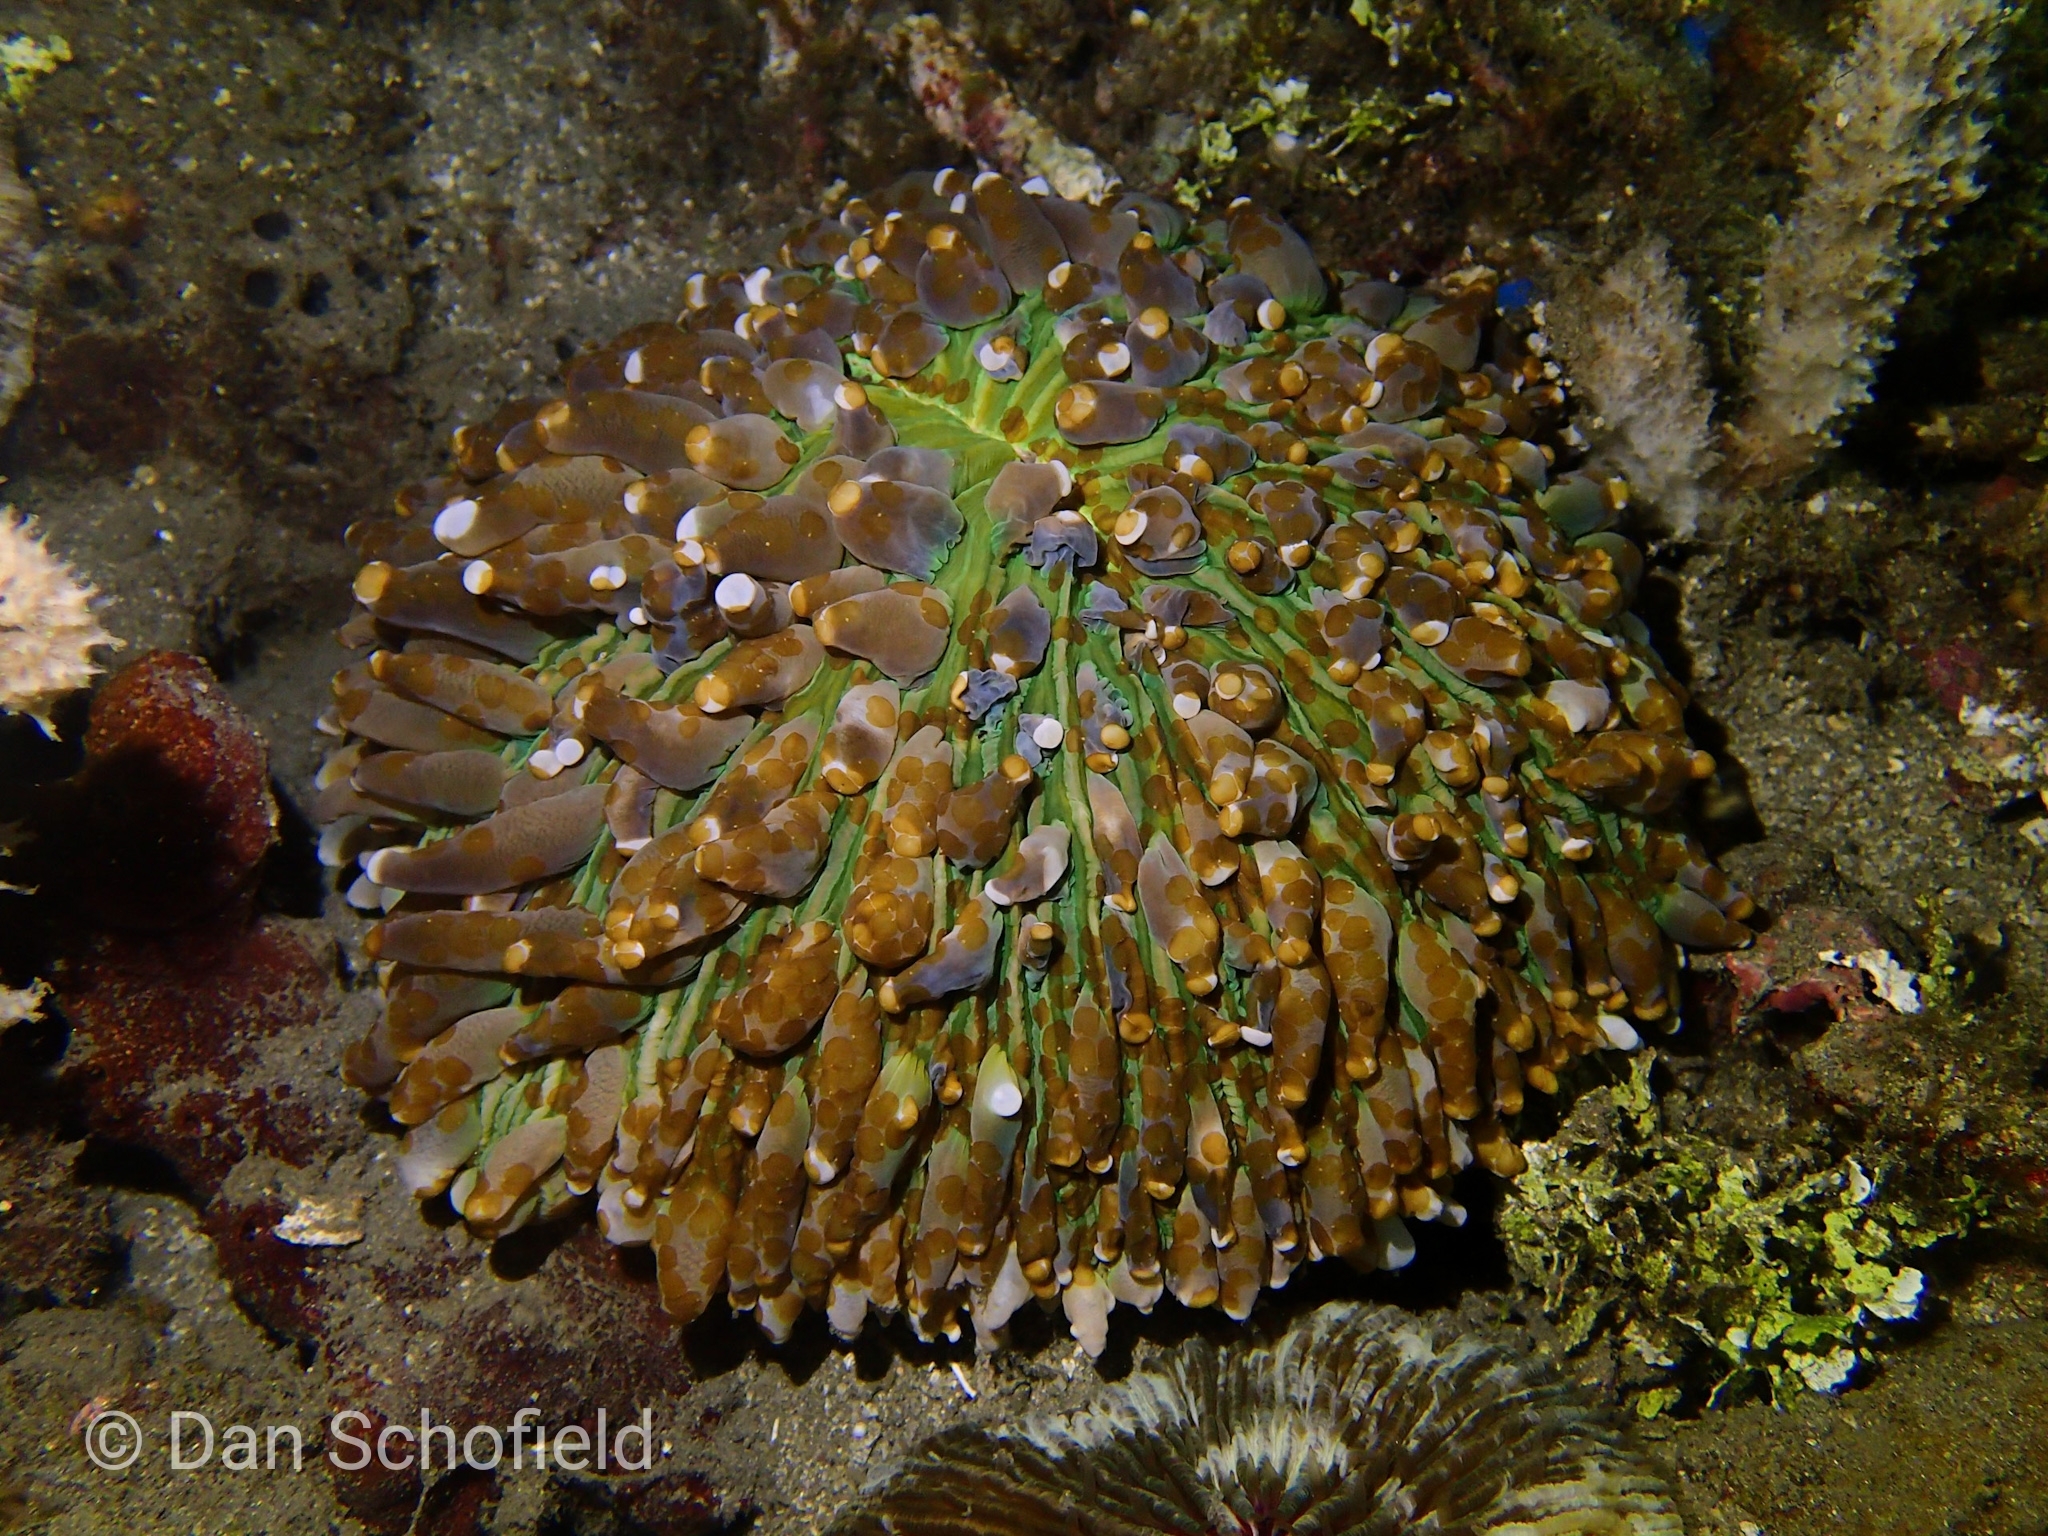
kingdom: Animalia
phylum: Cnidaria
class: Anthozoa
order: Scleractinia
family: Fungiidae
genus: Heliofungia
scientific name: Heliofungia actiniformis
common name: Plate coral
